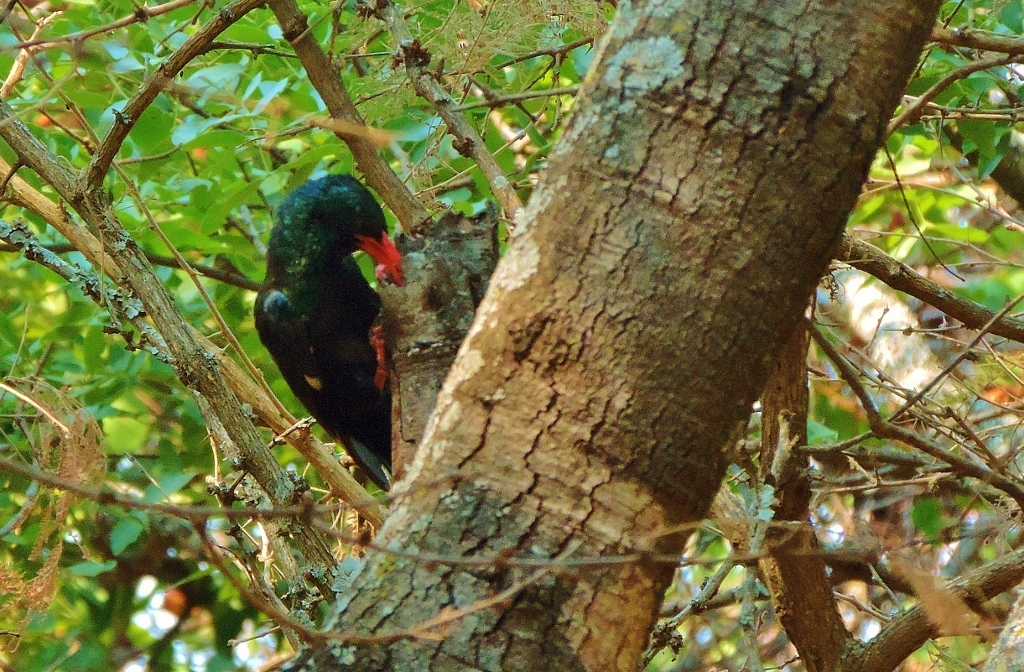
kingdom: Animalia
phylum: Chordata
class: Aves
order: Bucerotiformes
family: Phoeniculidae
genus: Phoeniculus
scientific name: Phoeniculus purpureus
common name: Green woodhoopoe
